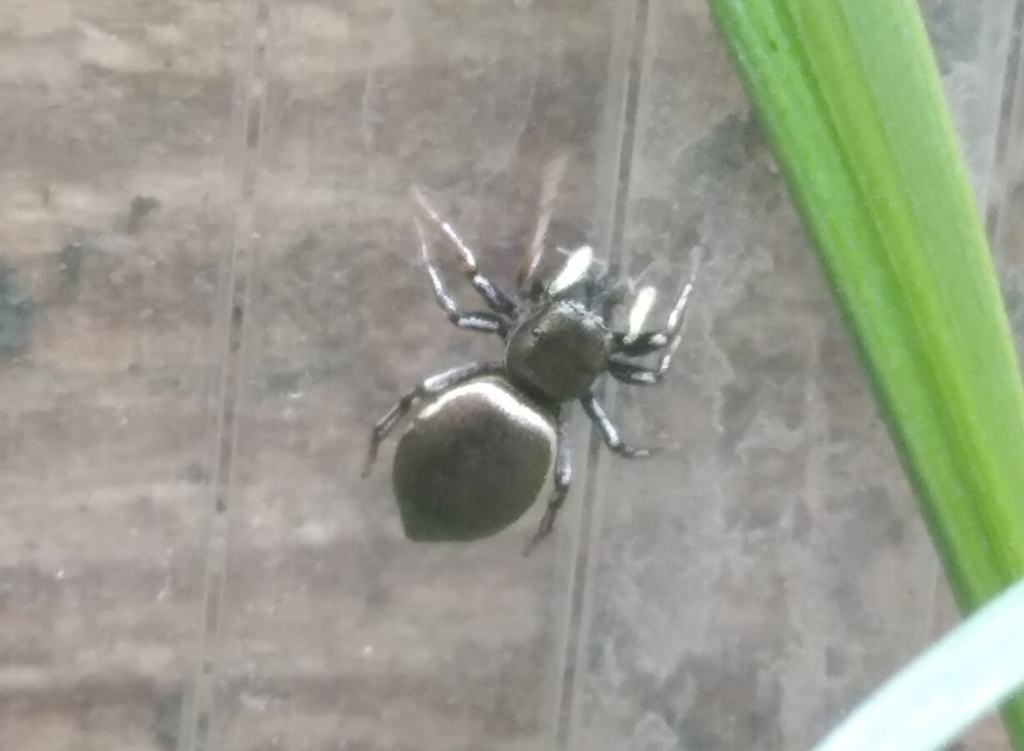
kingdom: Animalia
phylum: Arthropoda
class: Arachnida
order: Araneae
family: Salticidae
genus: Heliophanus
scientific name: Heliophanus auratus
